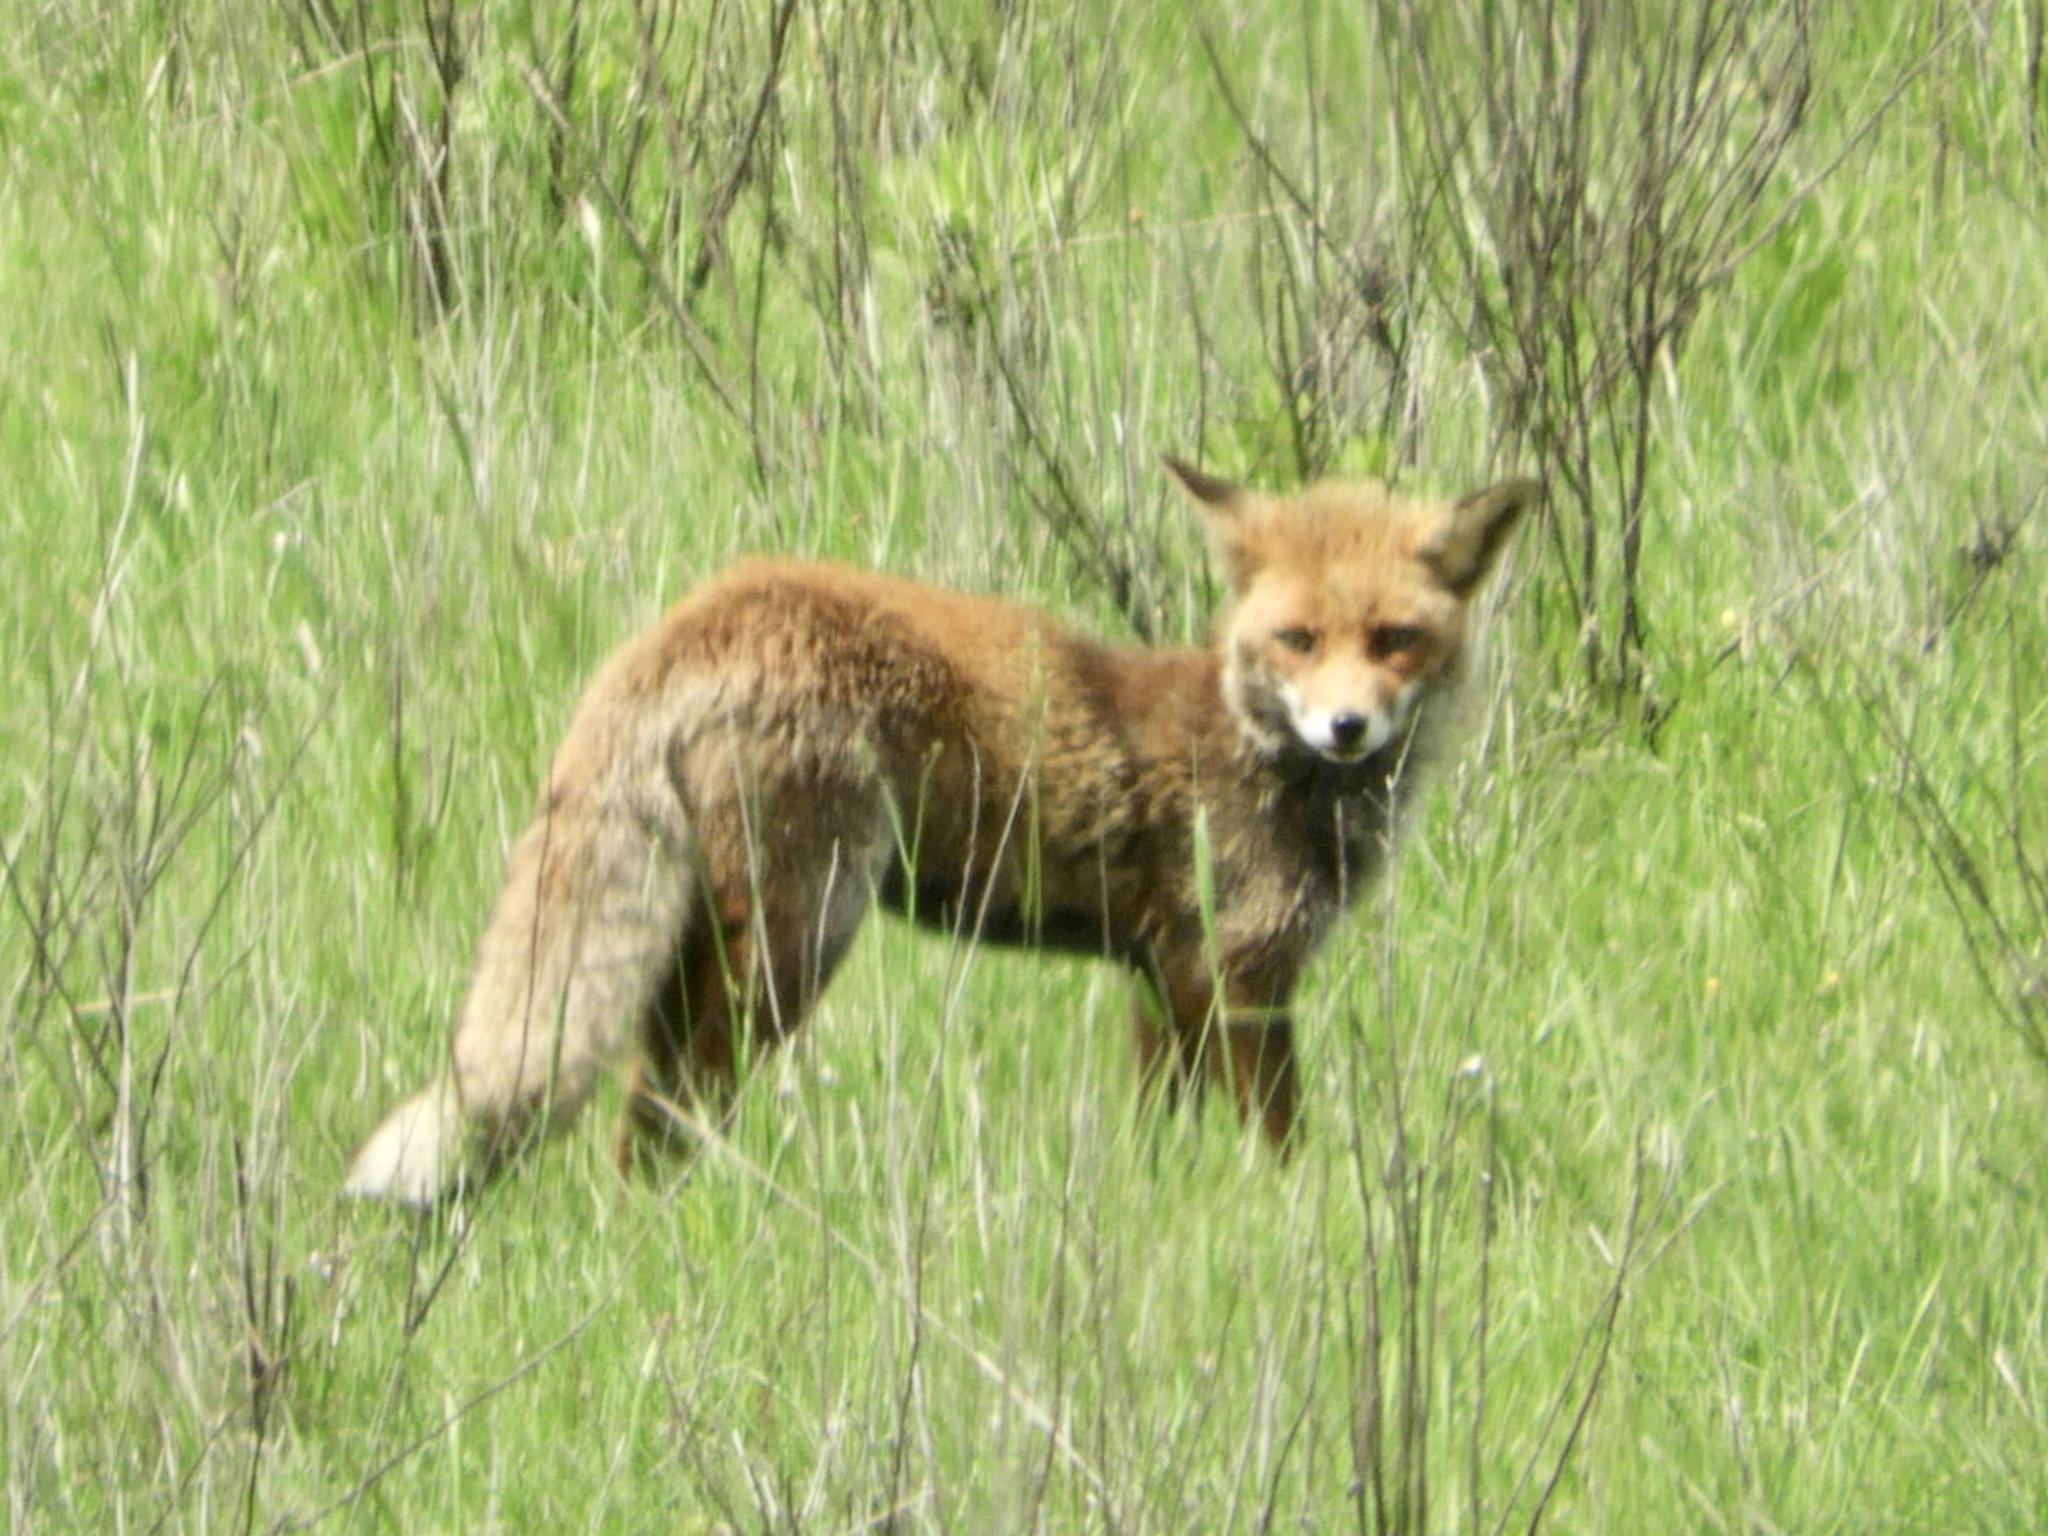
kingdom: Animalia
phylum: Chordata
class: Mammalia
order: Carnivora
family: Canidae
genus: Vulpes
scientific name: Vulpes vulpes
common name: Red fox
